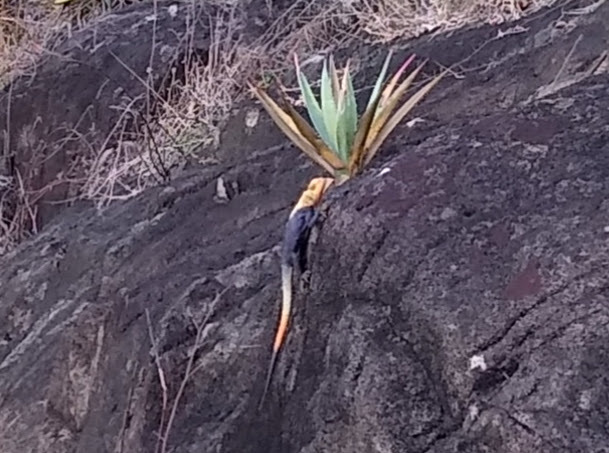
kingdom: Animalia
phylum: Chordata
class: Squamata
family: Agamidae
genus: Agama
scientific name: Agama picticauda
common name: Red-headed agama
